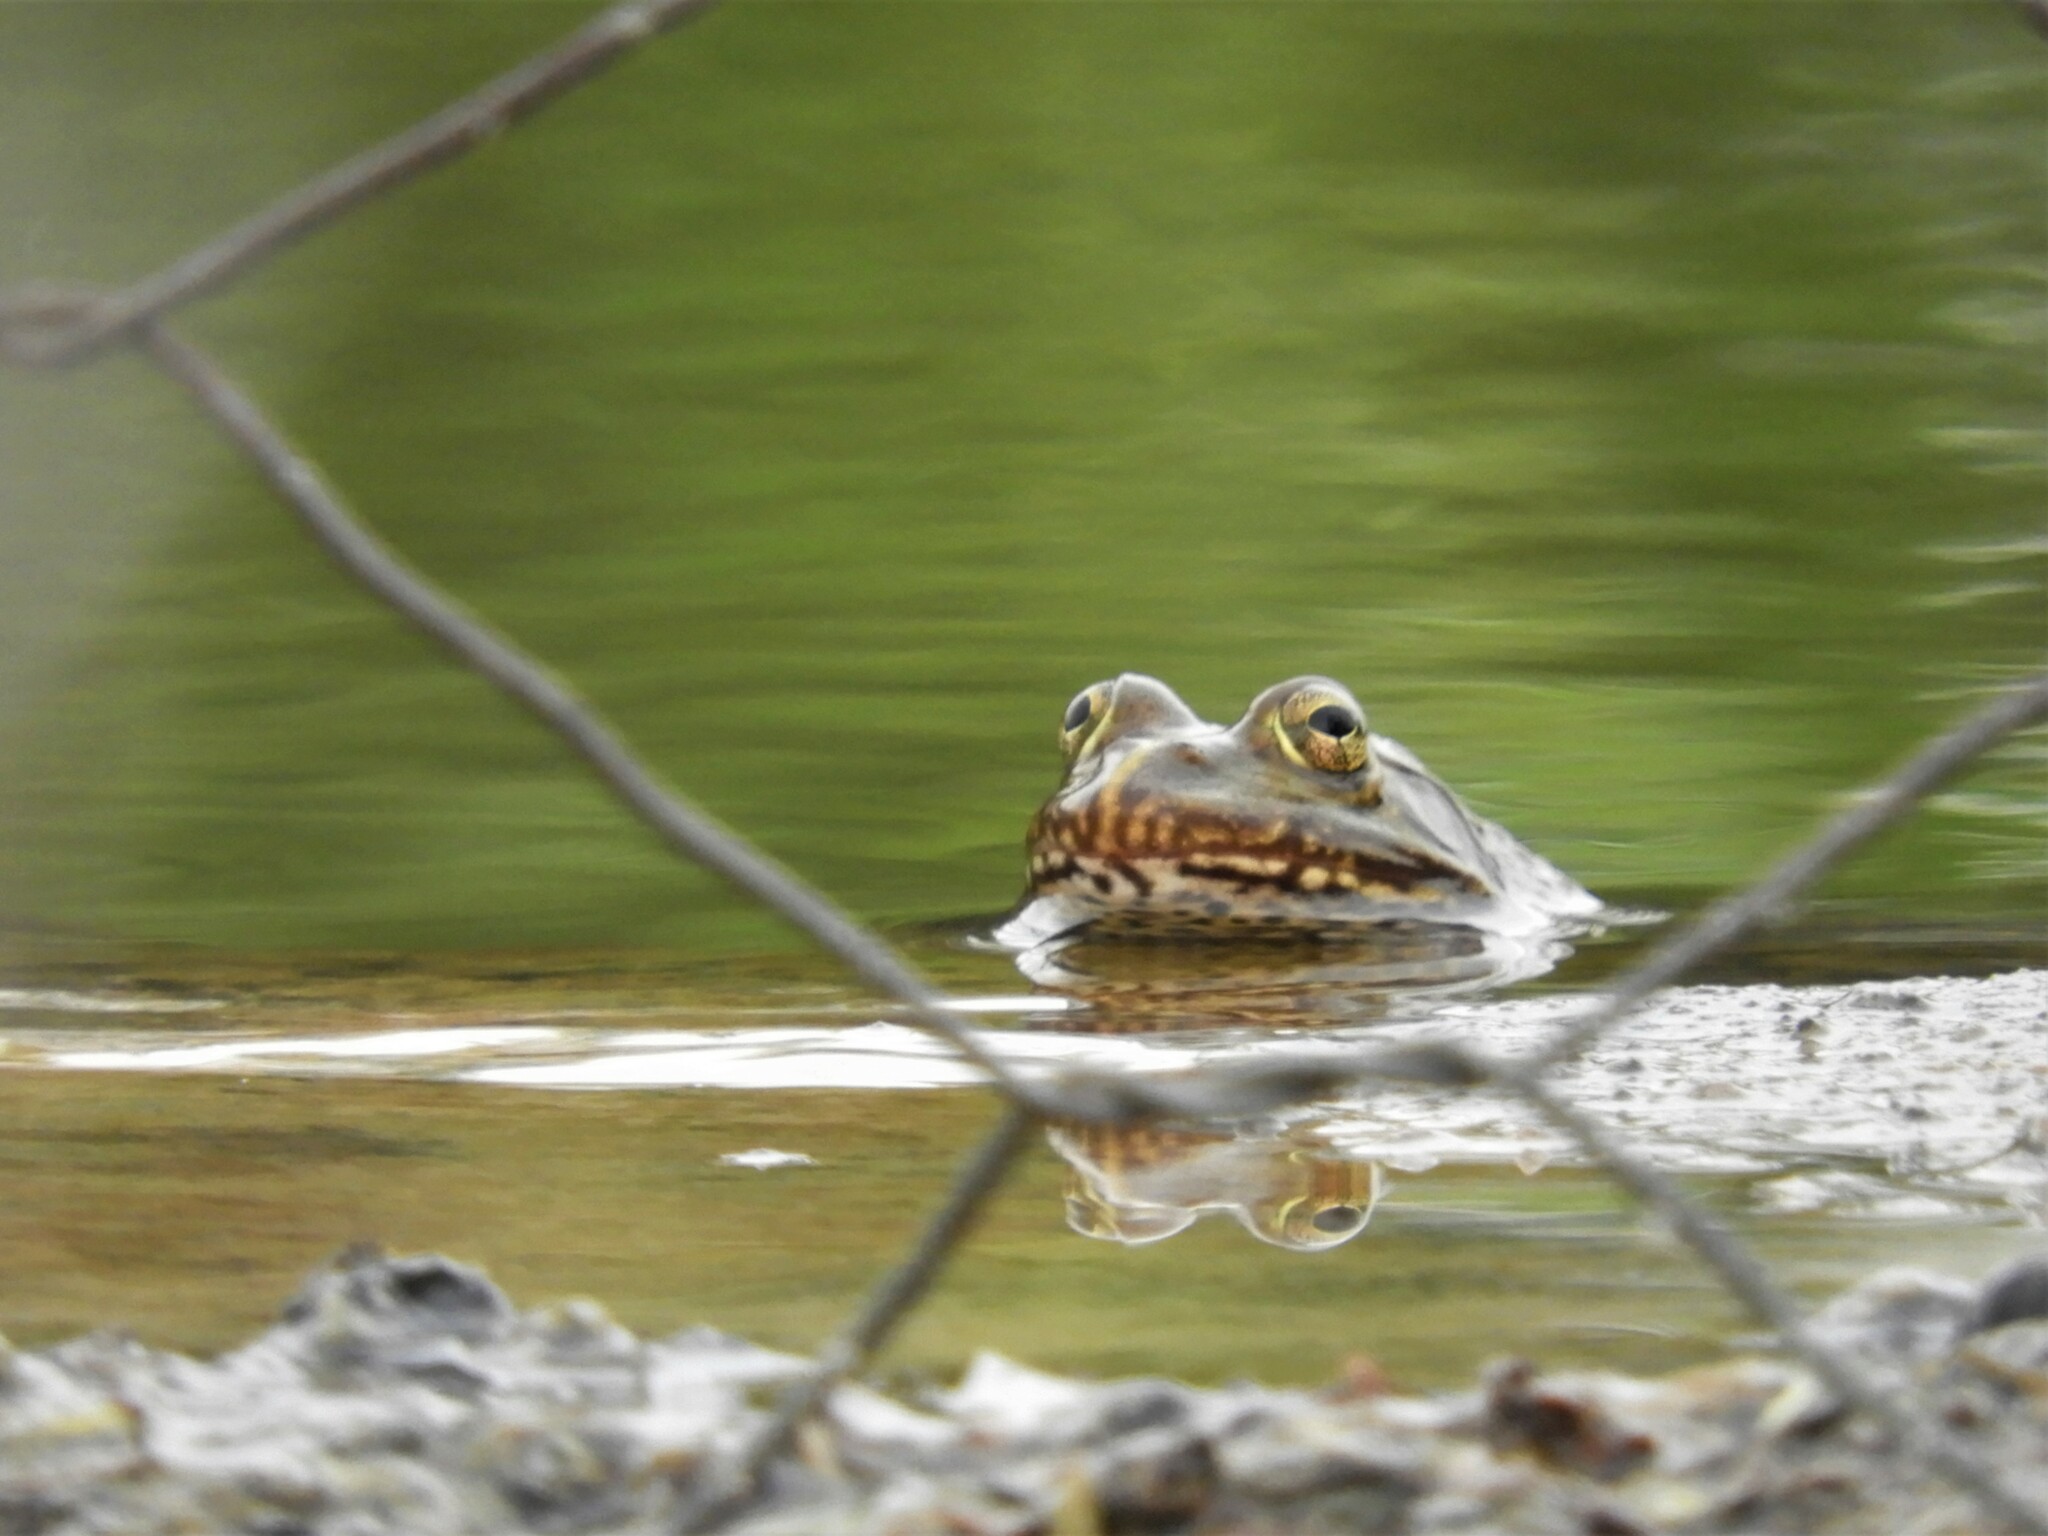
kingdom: Animalia
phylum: Chordata
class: Amphibia
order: Anura
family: Pyxicephalidae
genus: Amietia
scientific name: Amietia poyntoni
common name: Poynton's river frog
